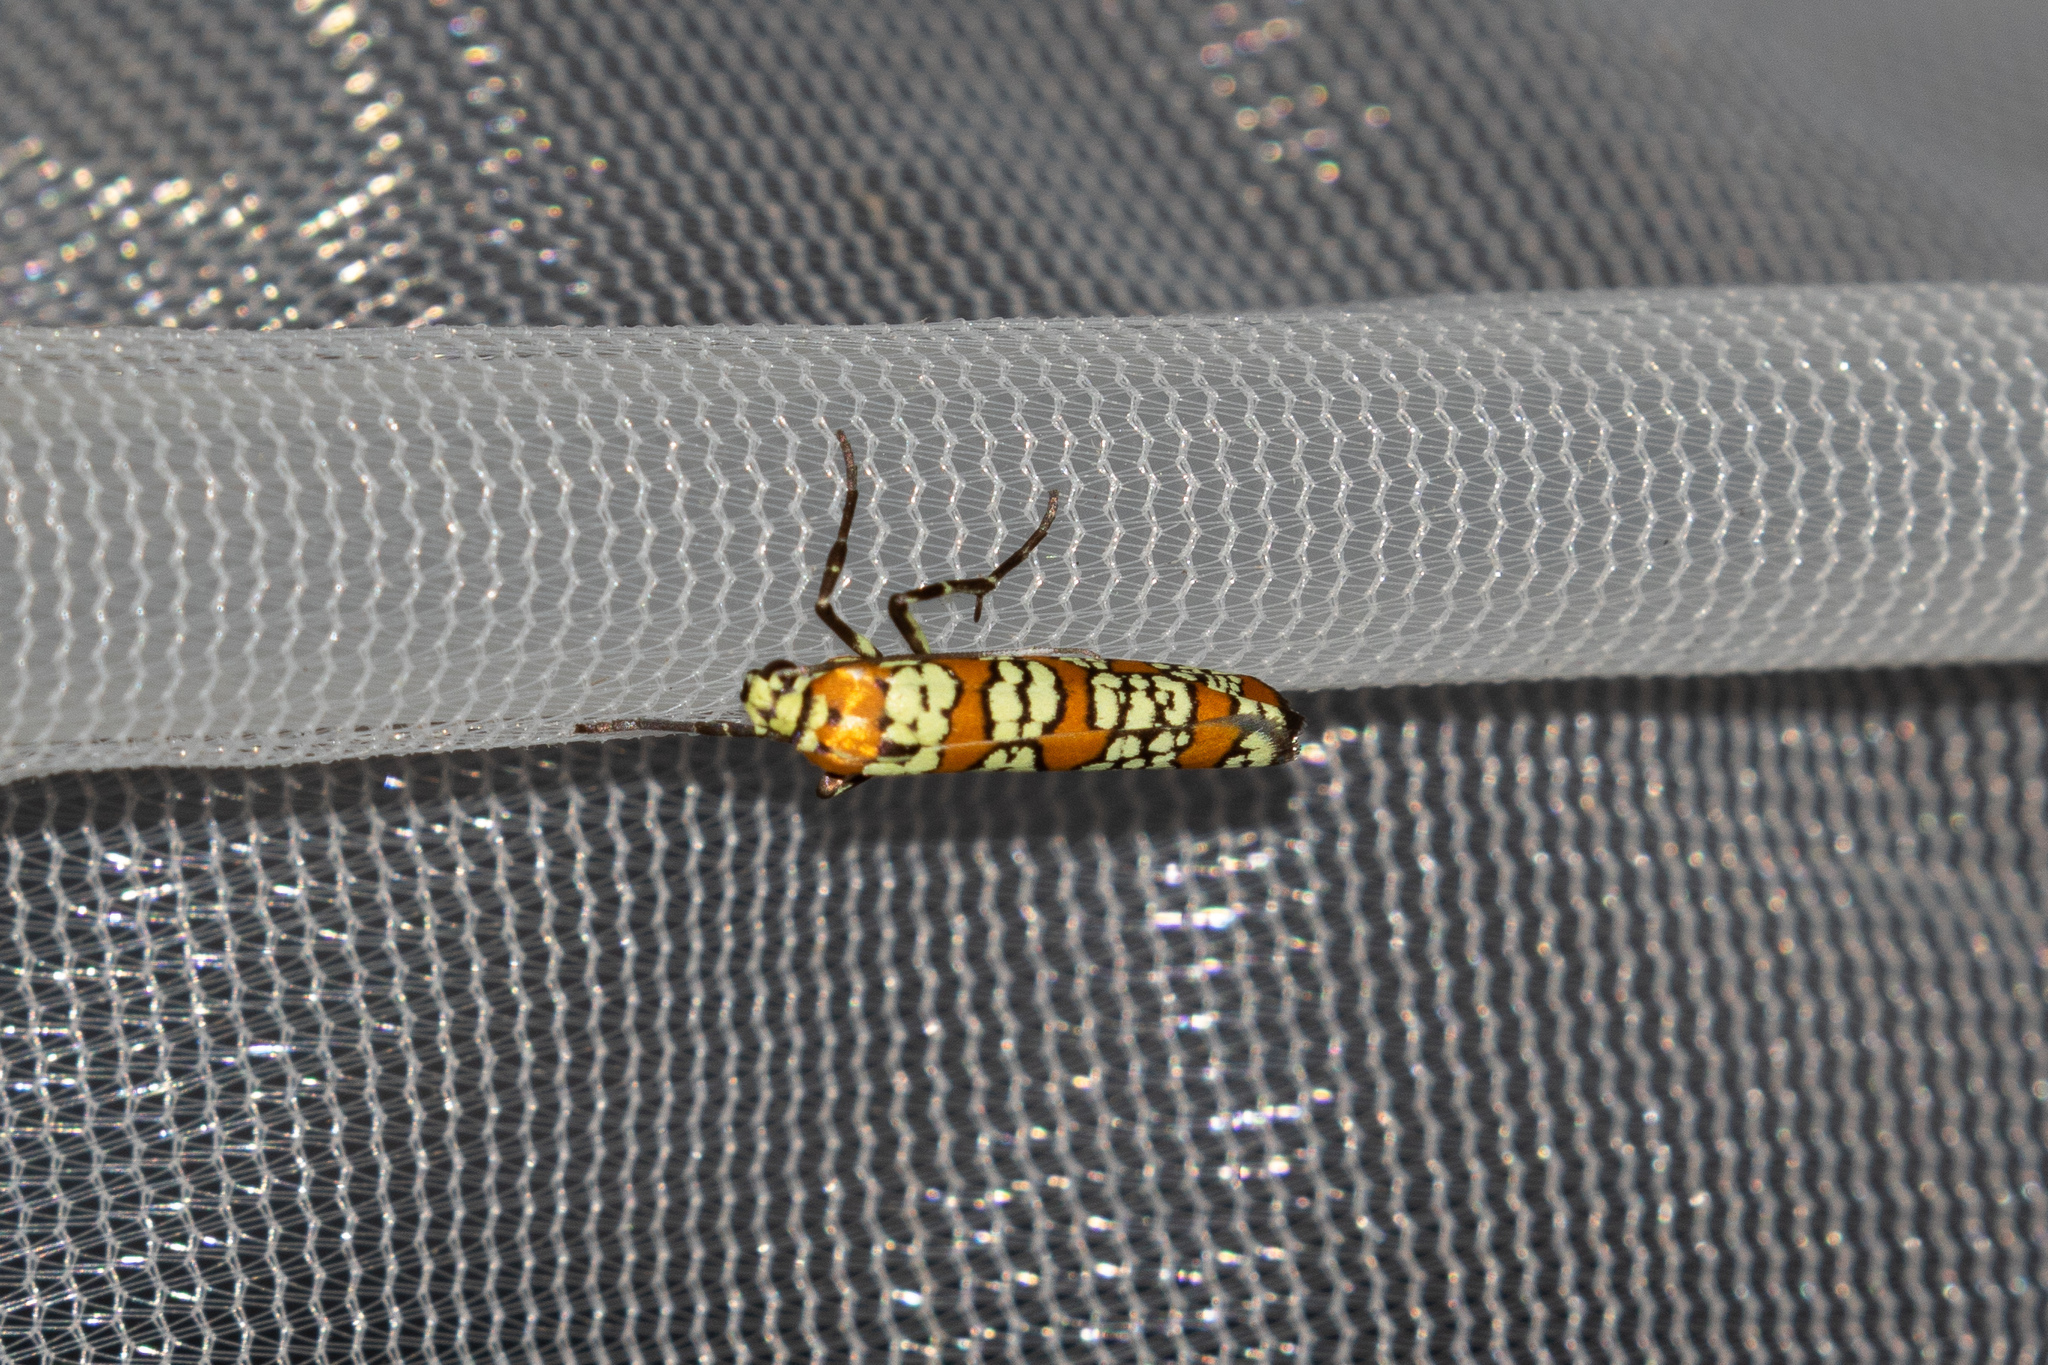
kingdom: Animalia
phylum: Arthropoda
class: Insecta
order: Lepidoptera
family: Attevidae
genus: Atteva
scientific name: Atteva punctella
